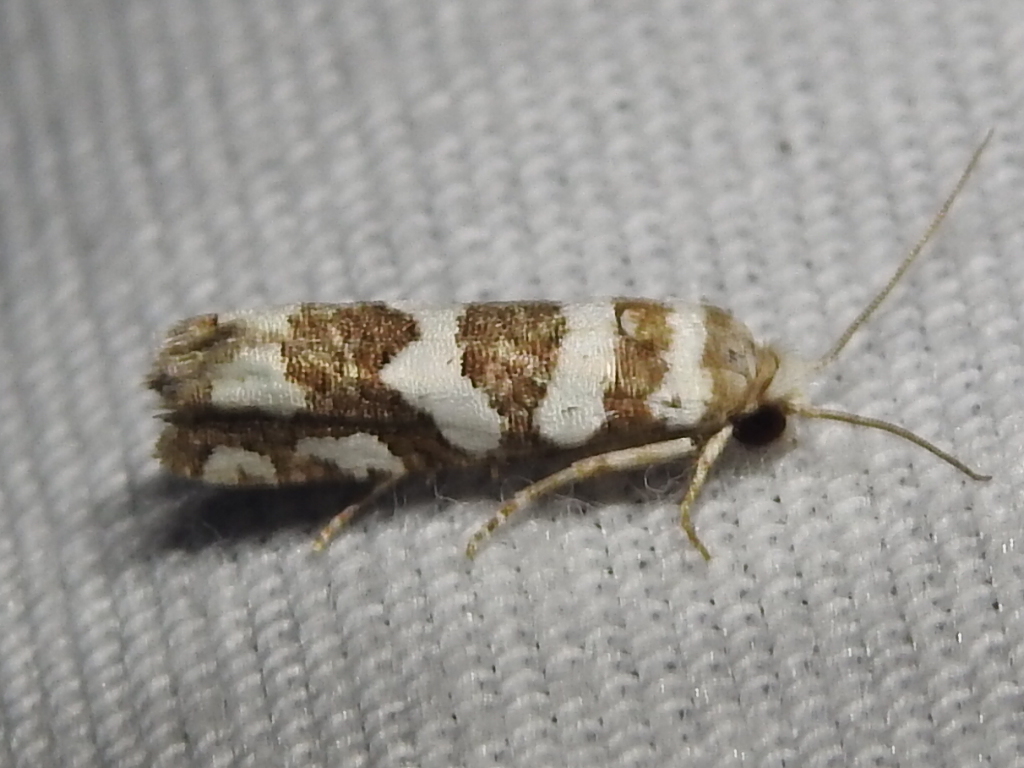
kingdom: Animalia
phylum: Arthropoda
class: Insecta
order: Lepidoptera
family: Tortricidae
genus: Pelochrista
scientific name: Pelochrista robinsonana
